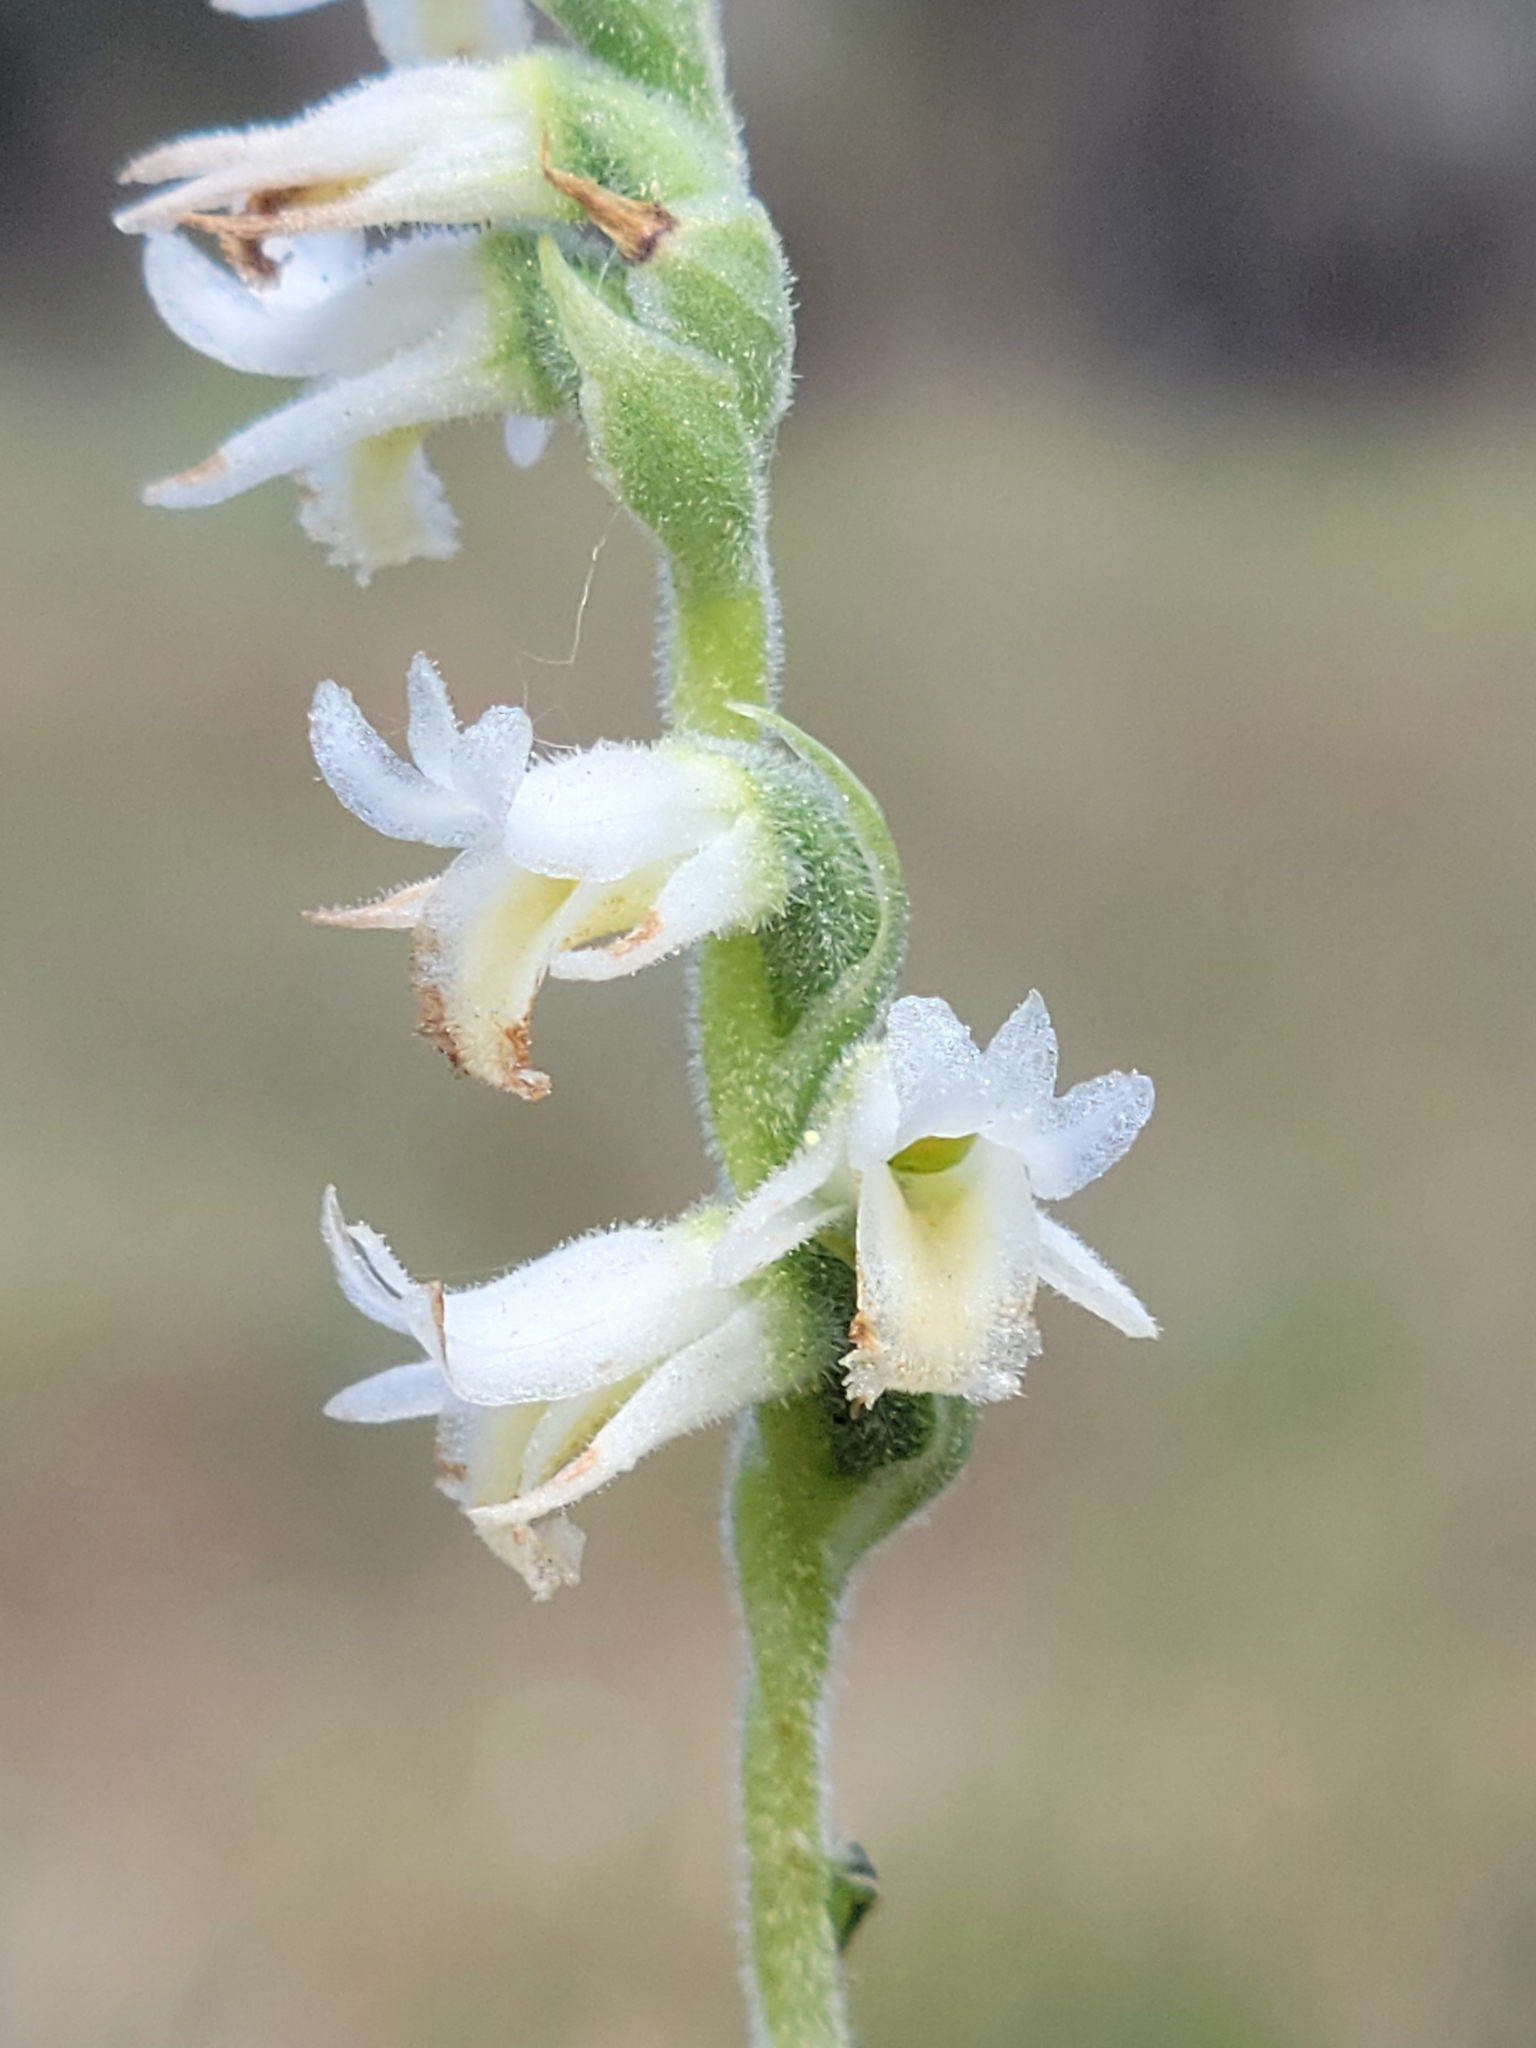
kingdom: Plantae
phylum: Tracheophyta
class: Liliopsida
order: Asparagales
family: Orchidaceae
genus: Spiranthes
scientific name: Spiranthes vernalis
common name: Spring ladies'-tresses
